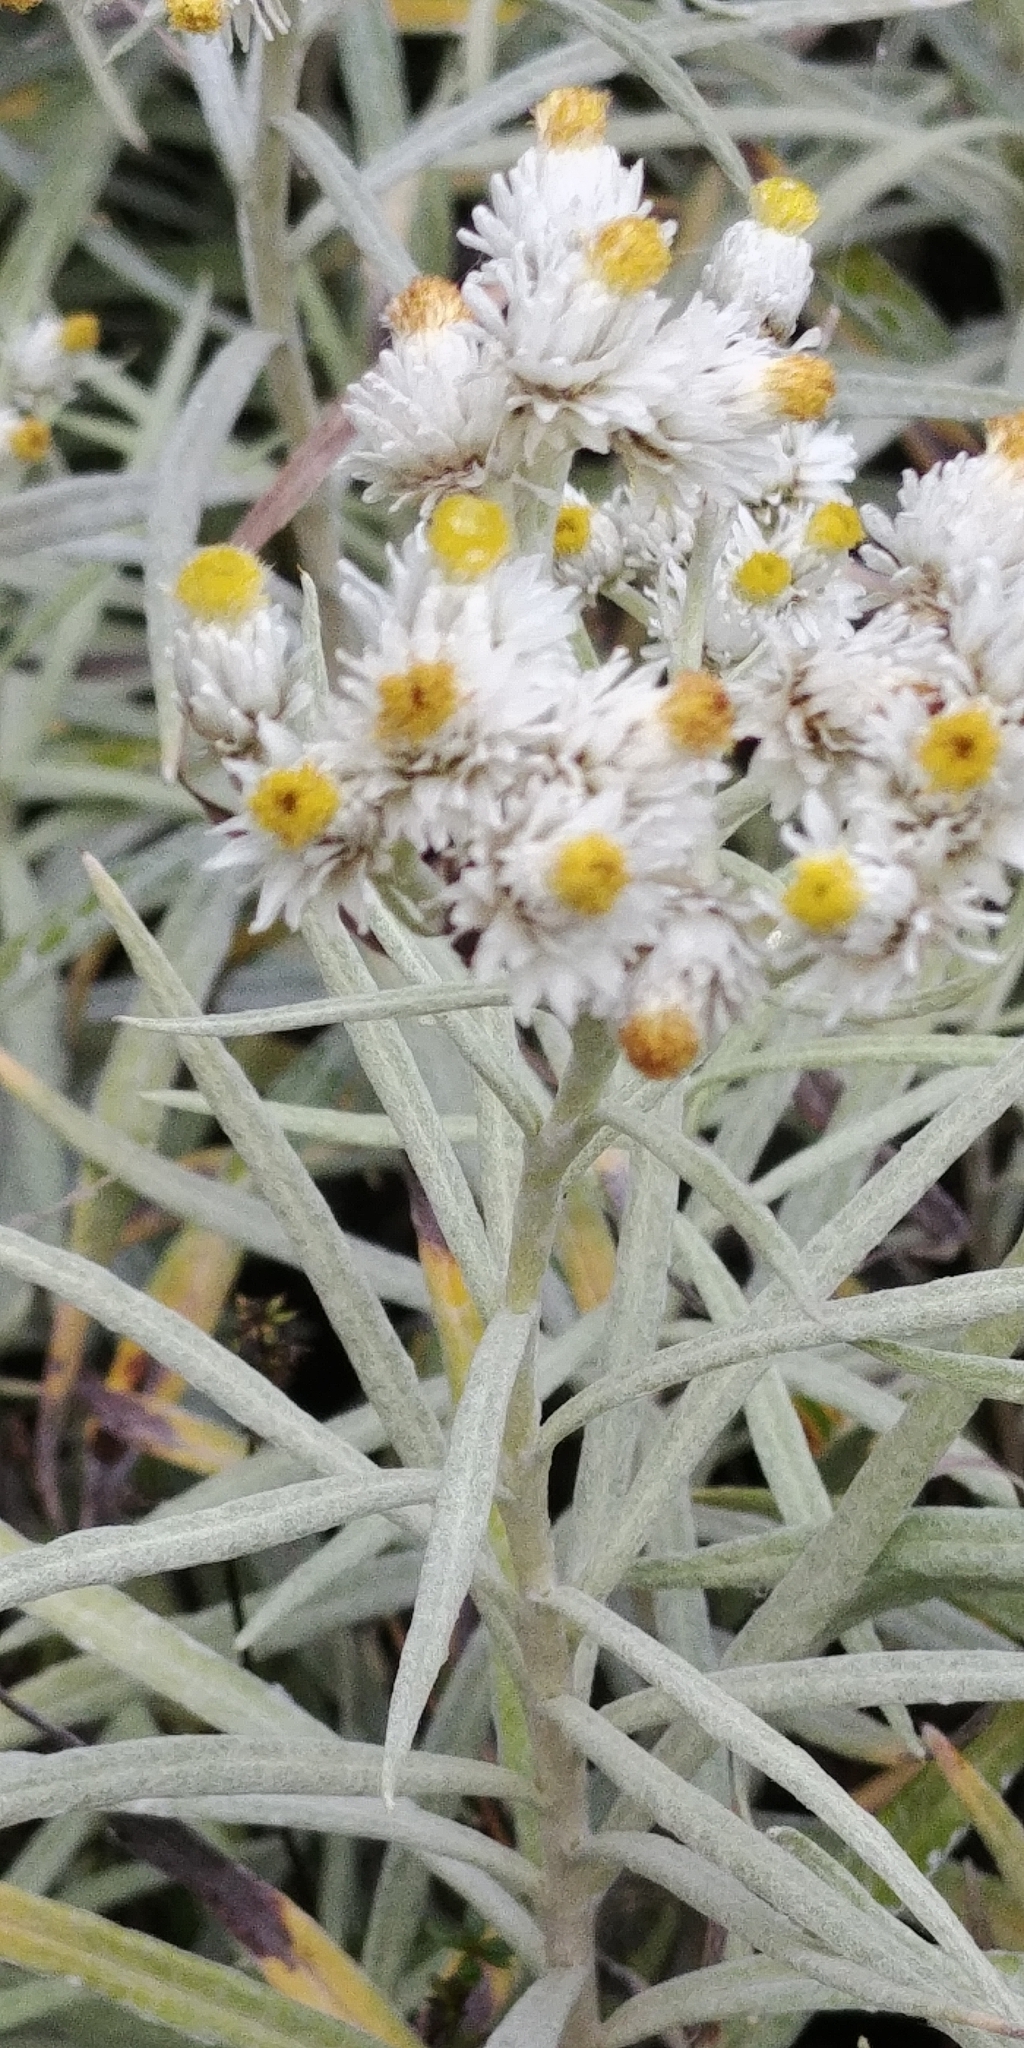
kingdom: Plantae
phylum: Tracheophyta
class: Magnoliopsida
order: Asterales
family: Asteraceae
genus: Anaphalis
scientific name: Anaphalis margaritacea
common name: Pearly everlasting
